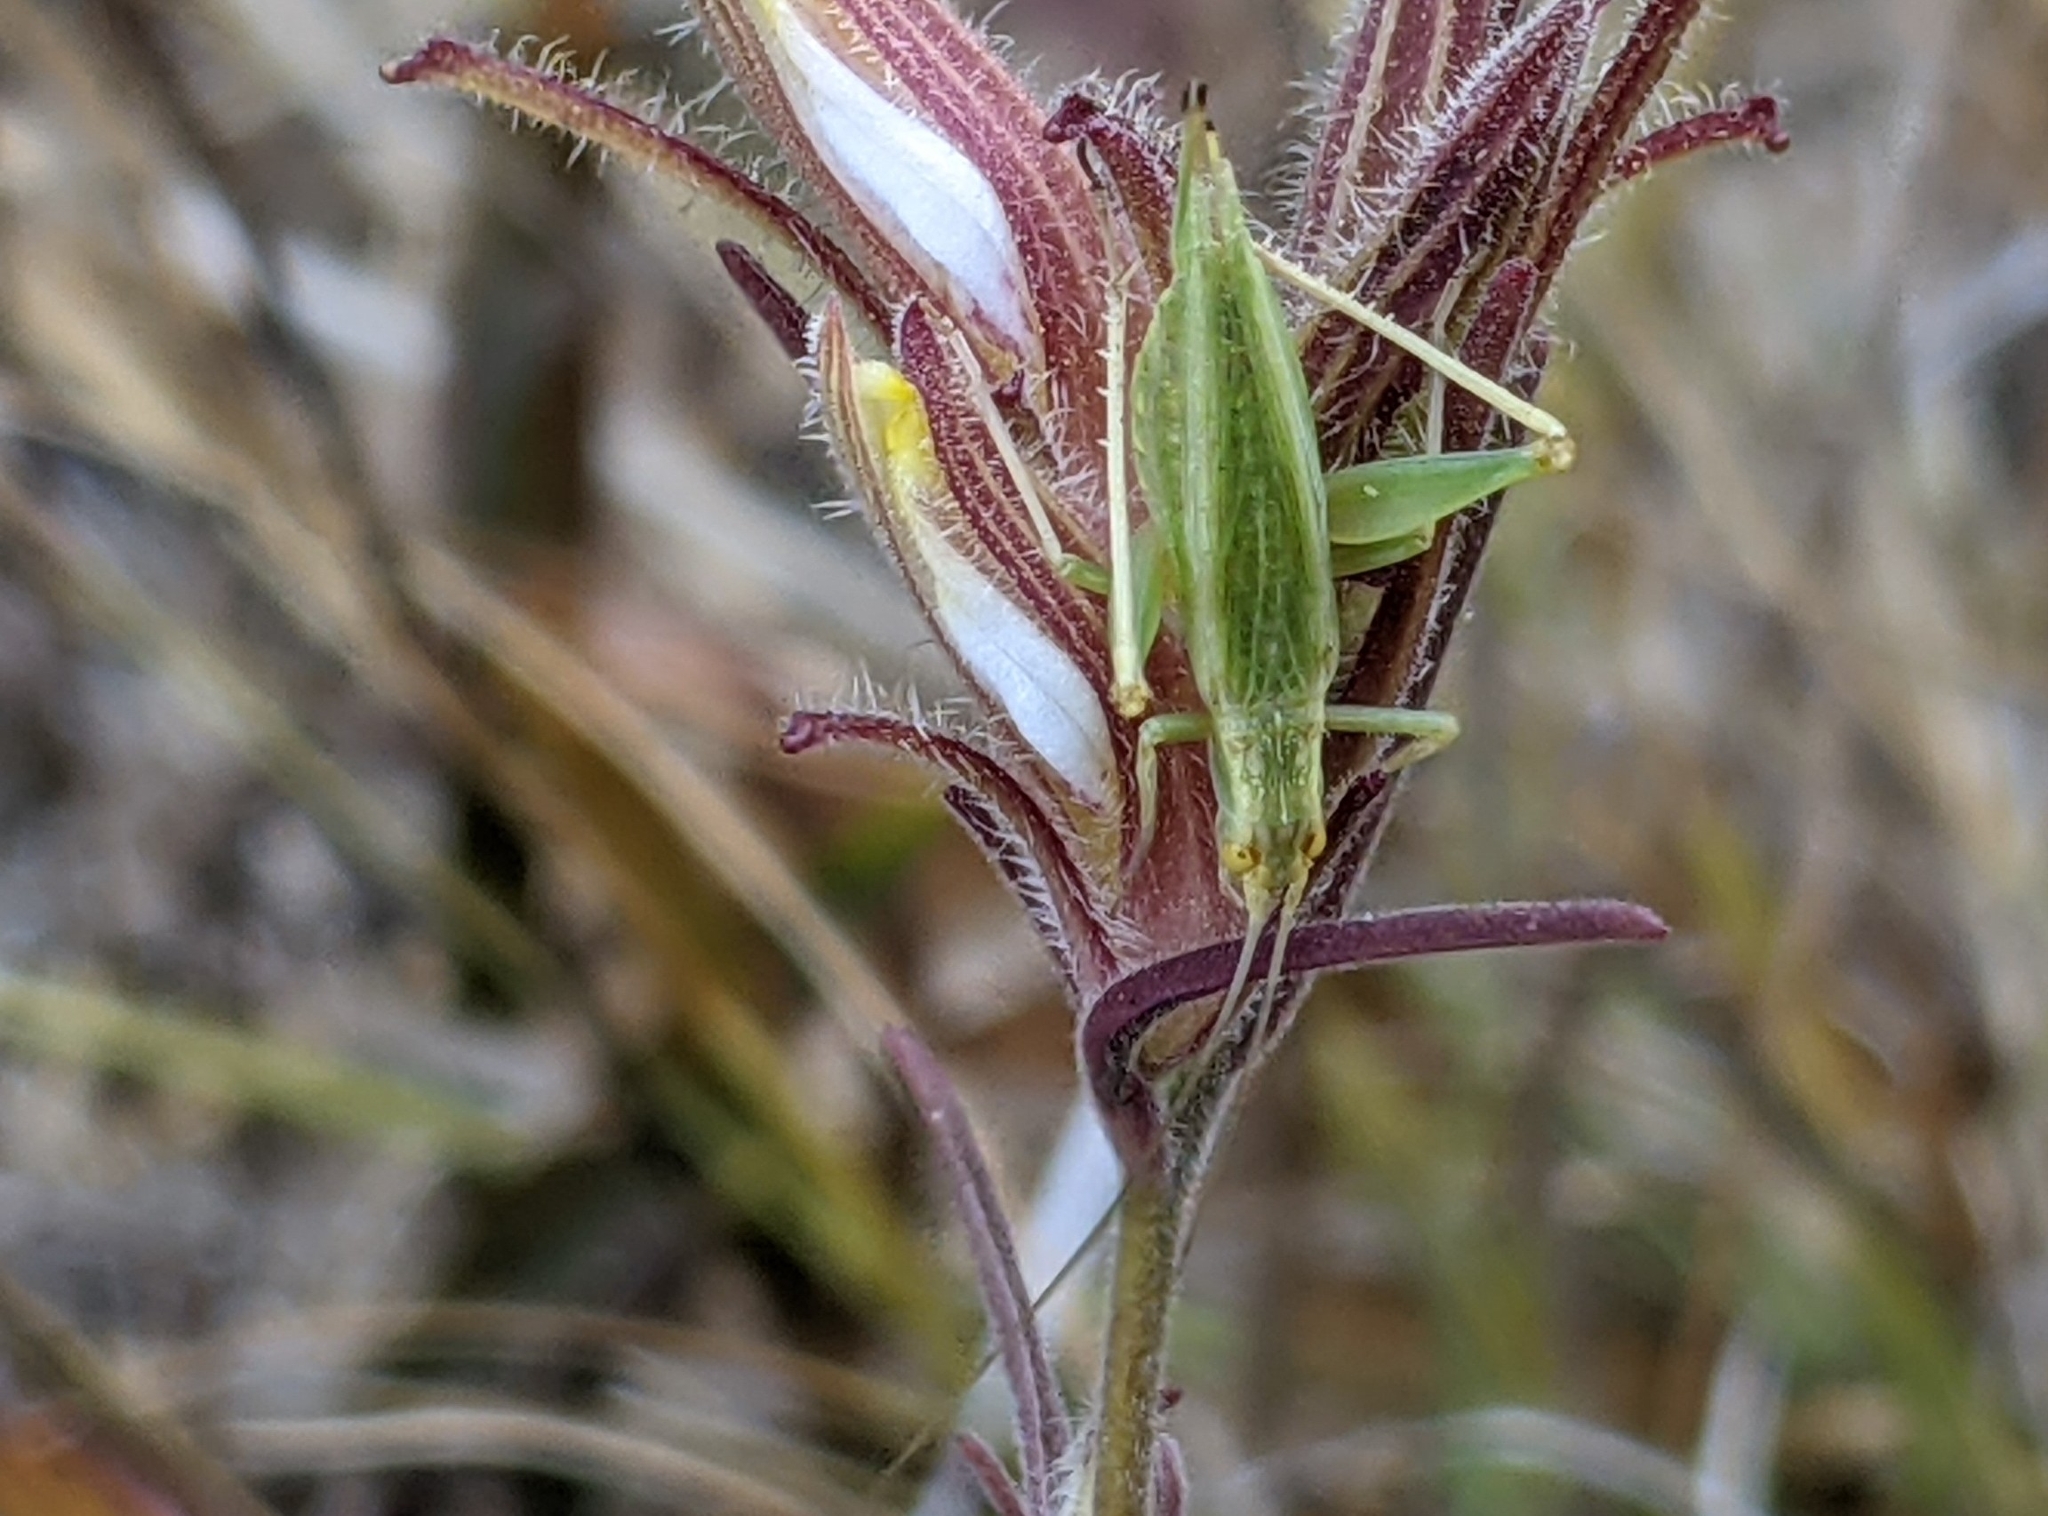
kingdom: Animalia
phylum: Arthropoda
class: Insecta
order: Orthoptera
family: Gryllidae
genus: Oecanthus
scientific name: Oecanthus quadripunctatus
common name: Four-spotted tree cricket
